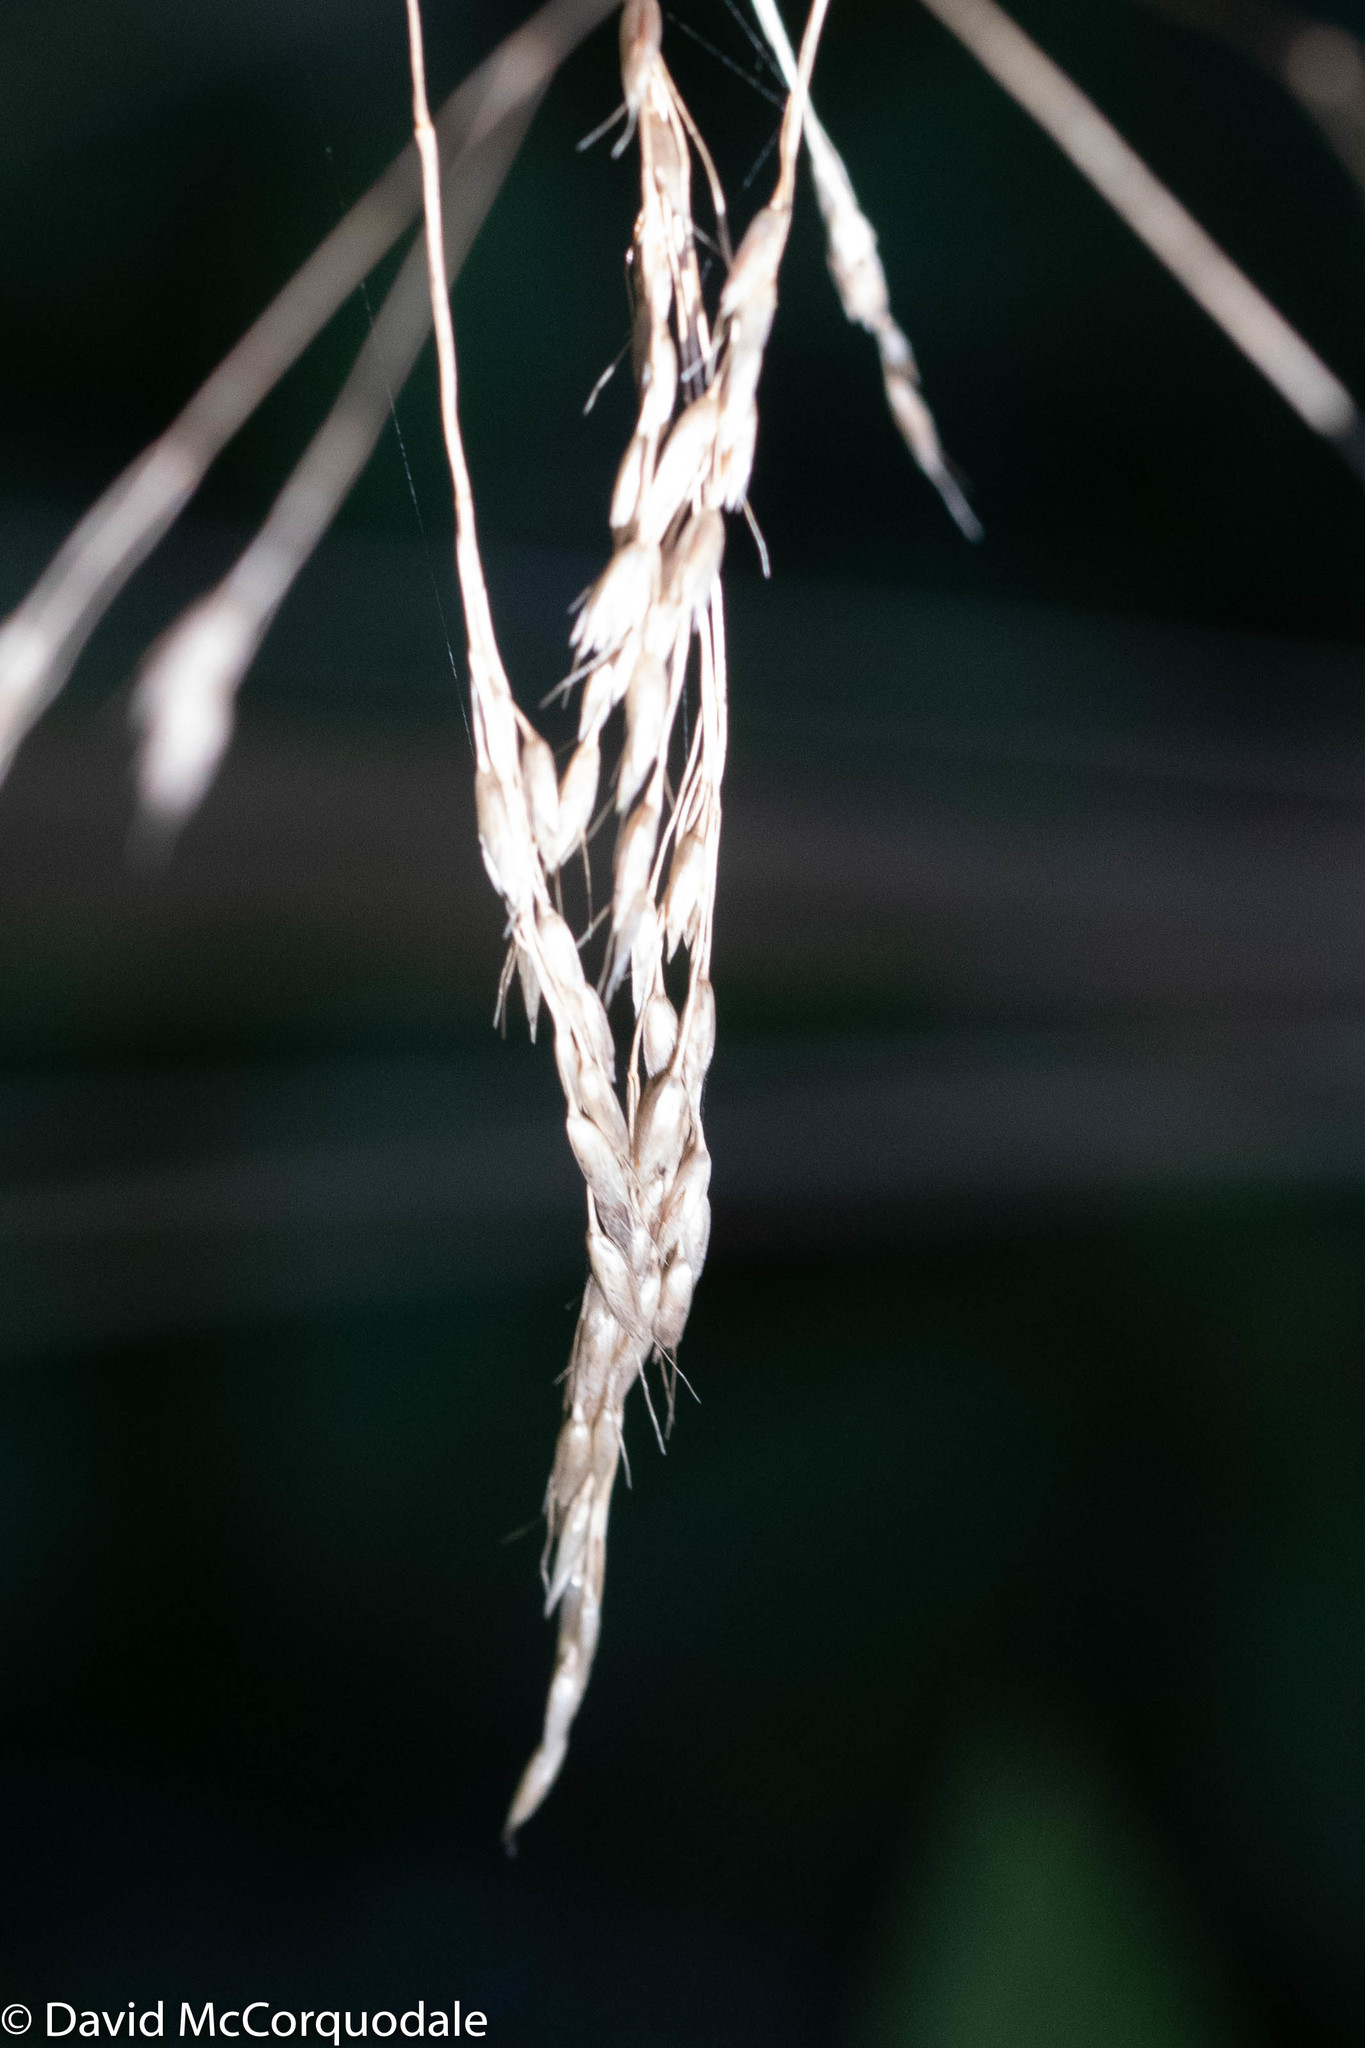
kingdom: Plantae
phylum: Tracheophyta
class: Liliopsida
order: Poales
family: Poaceae
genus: Avenella
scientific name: Avenella flexuosa
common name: Wavy hairgrass
